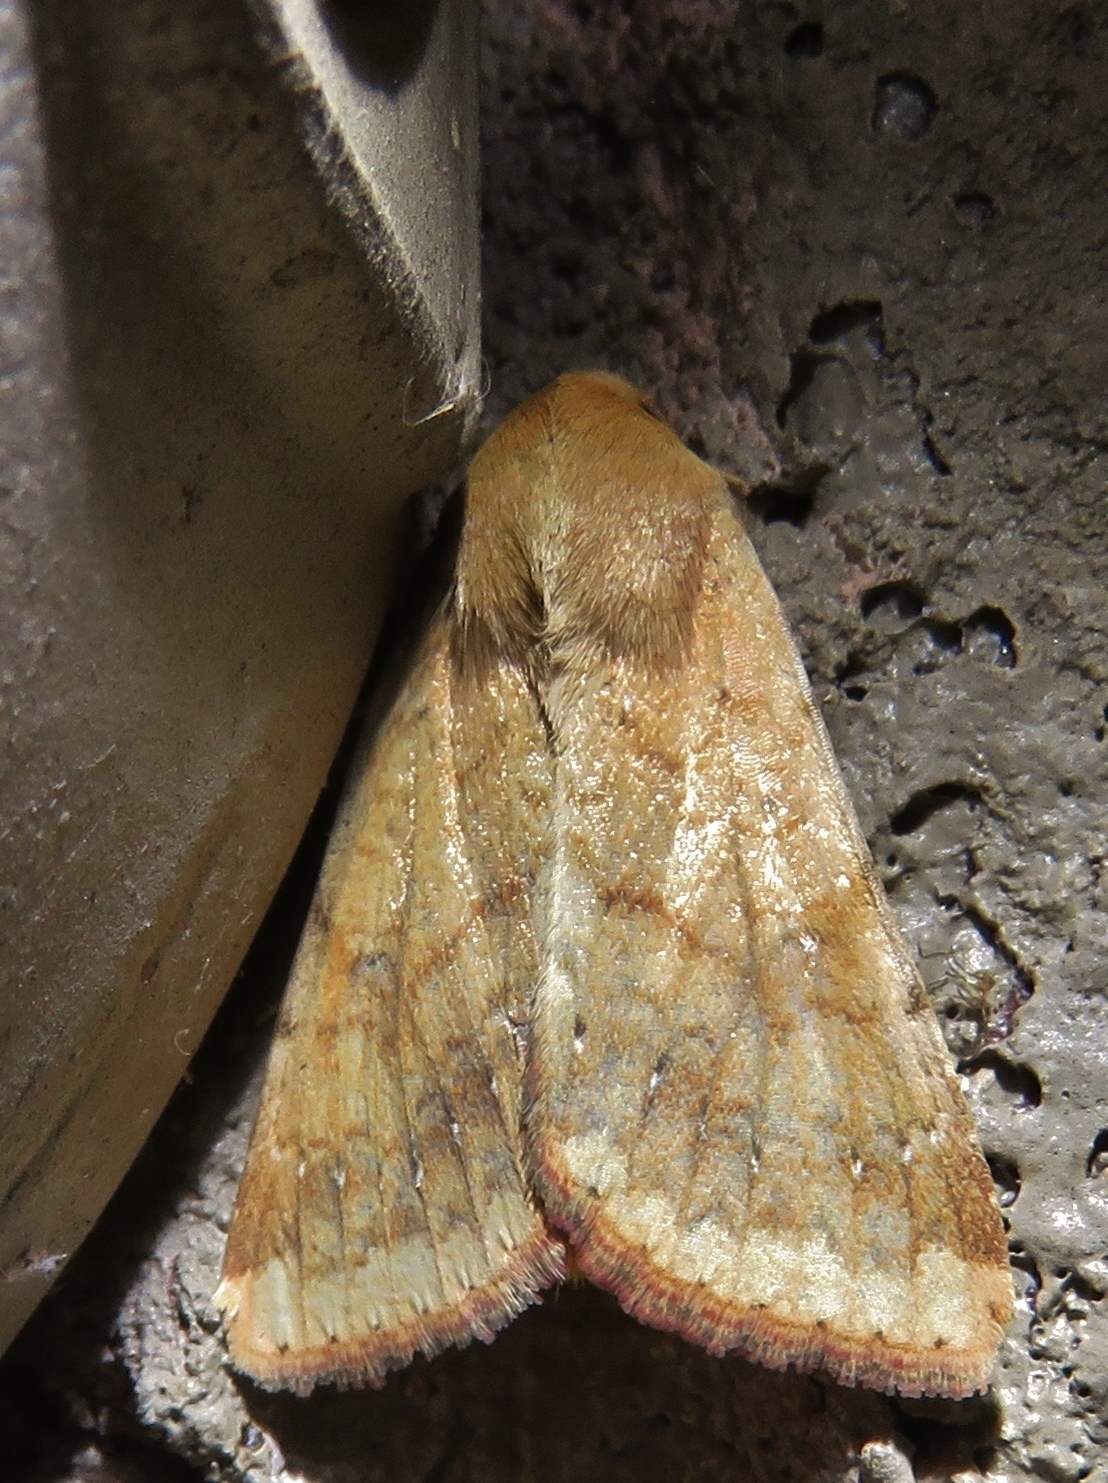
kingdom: Animalia
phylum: Arthropoda
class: Insecta
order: Lepidoptera
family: Noctuidae
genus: Helicoverpa
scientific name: Helicoverpa zea
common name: Bollworm
